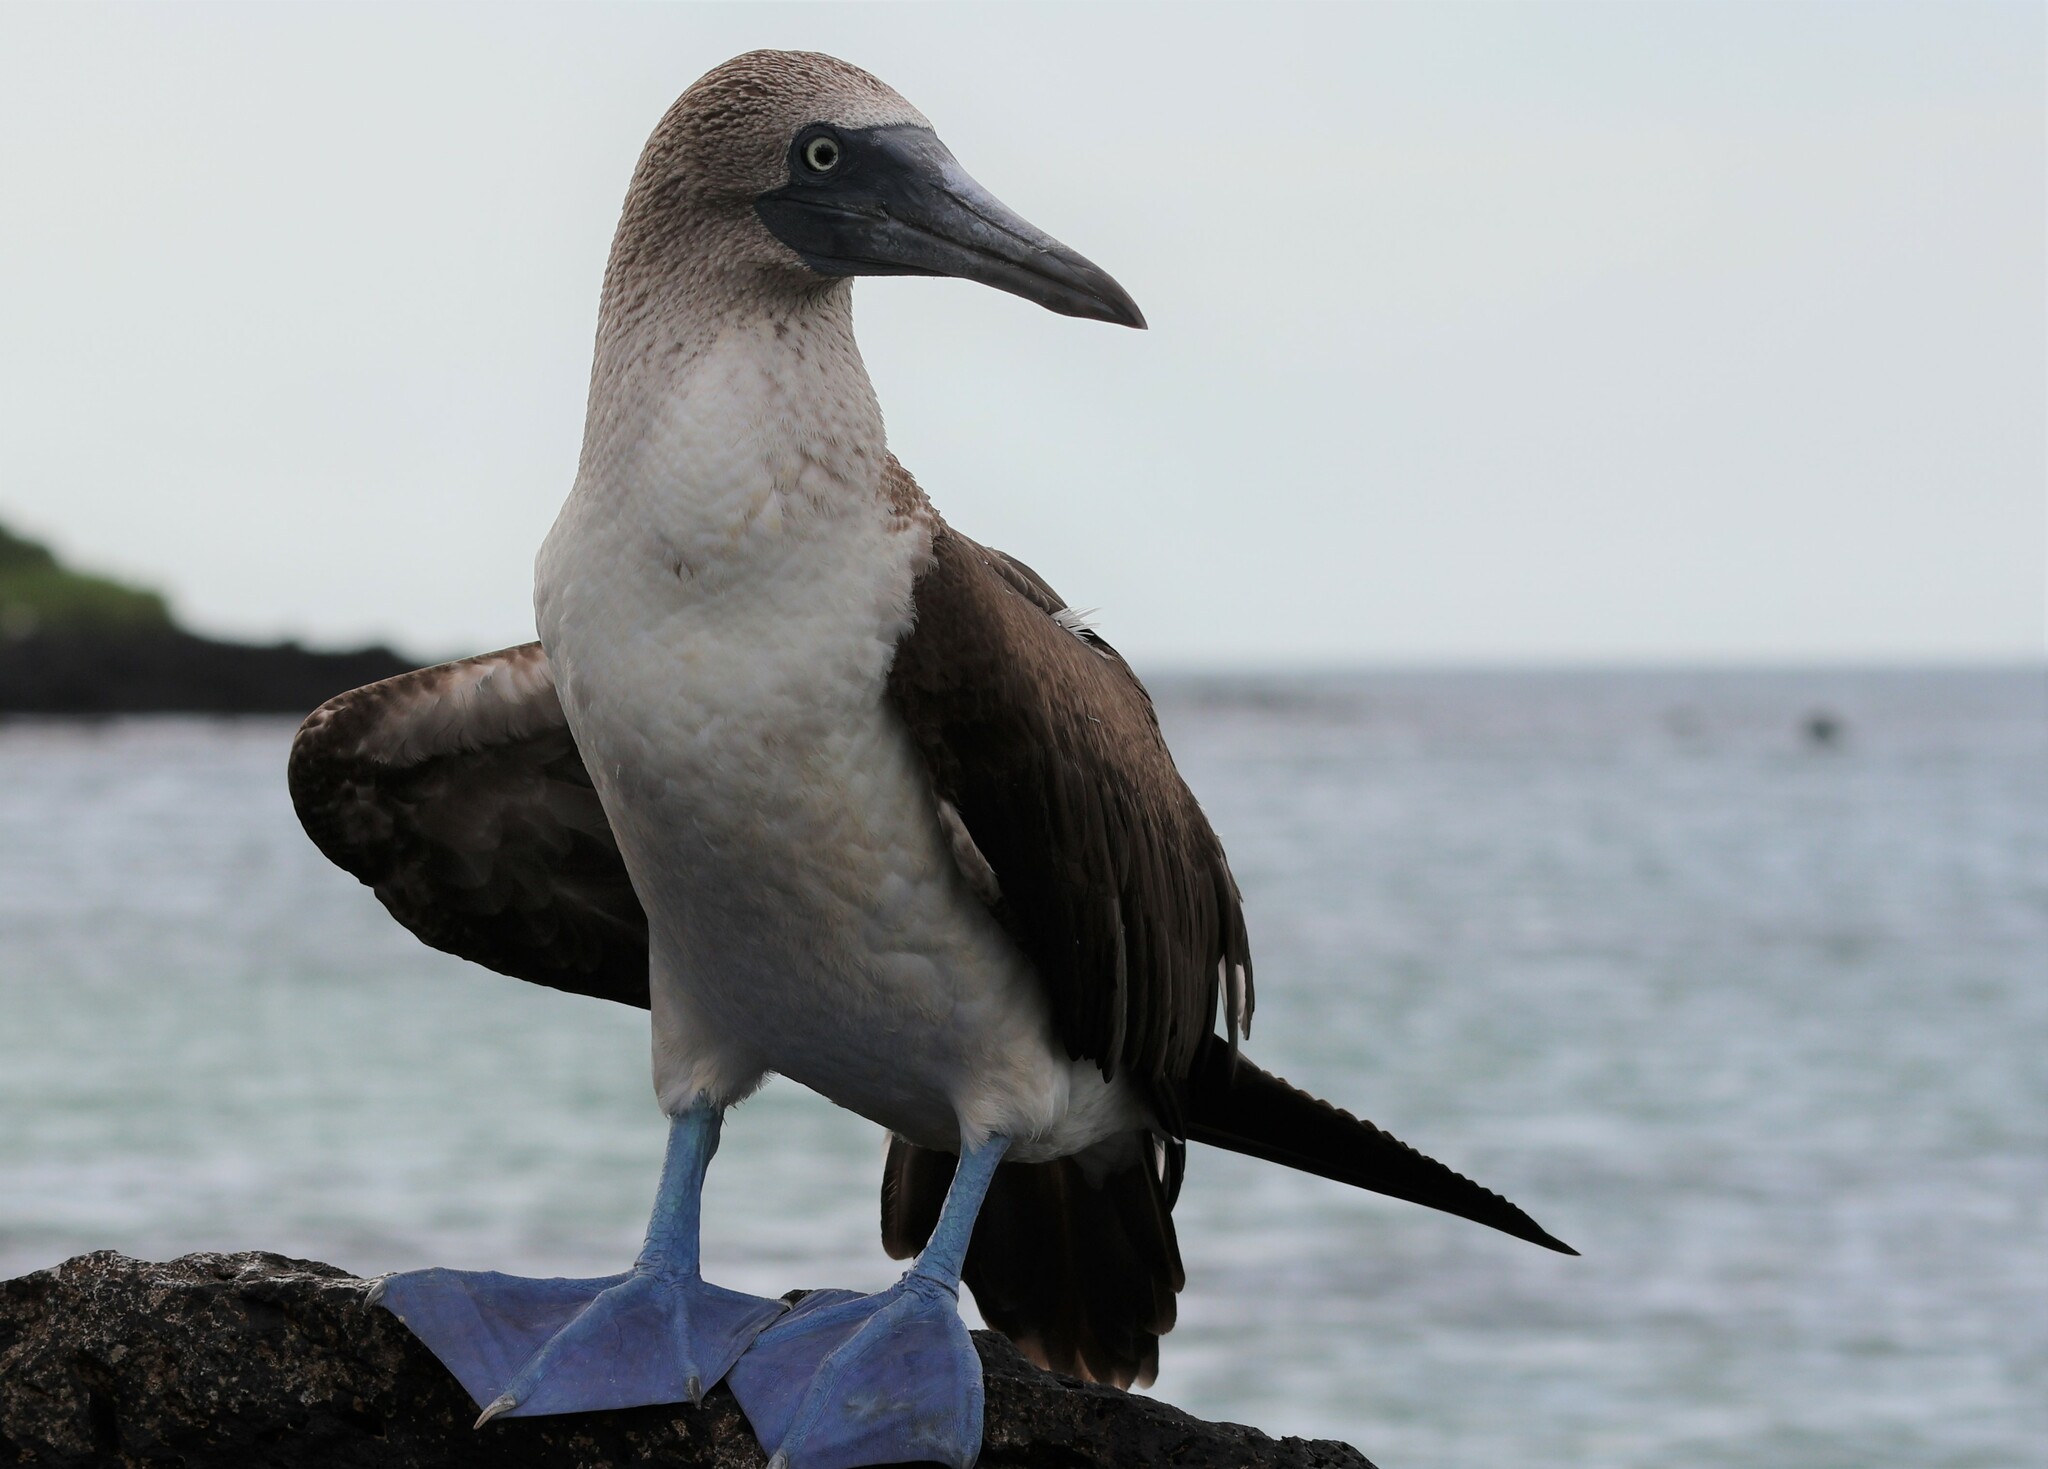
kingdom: Animalia
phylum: Chordata
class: Aves
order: Suliformes
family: Sulidae
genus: Sula
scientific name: Sula nebouxii
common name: Blue-footed booby
